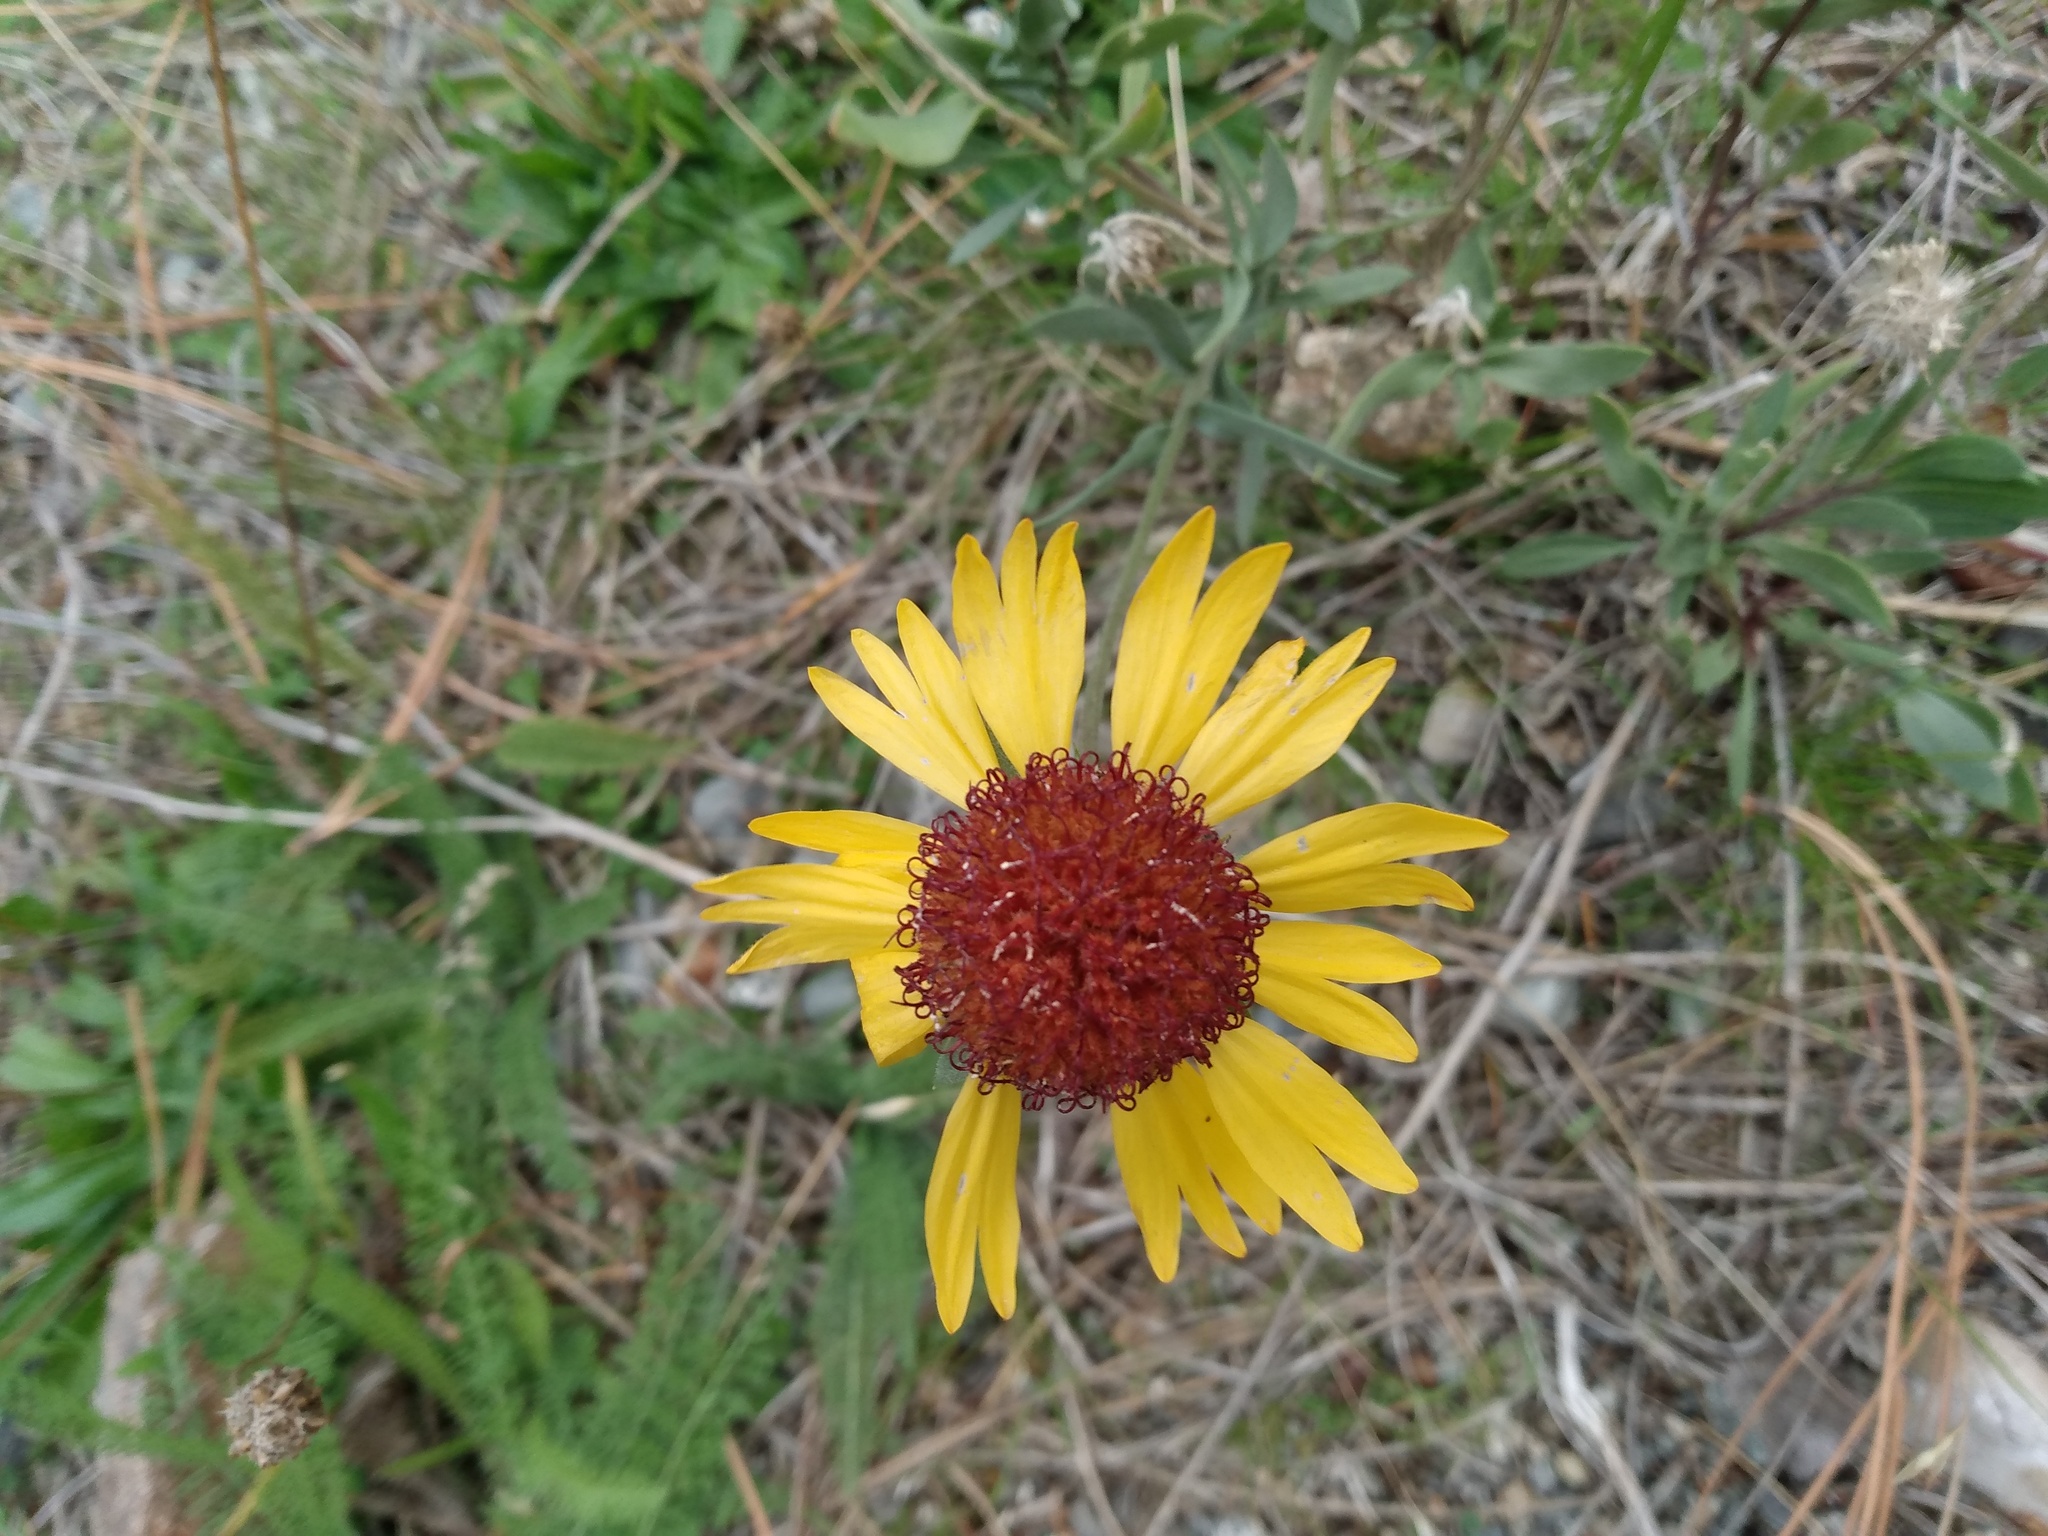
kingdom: Plantae
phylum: Tracheophyta
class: Magnoliopsida
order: Asterales
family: Asteraceae
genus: Gaillardia
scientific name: Gaillardia aristata
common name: Blanket-flower
